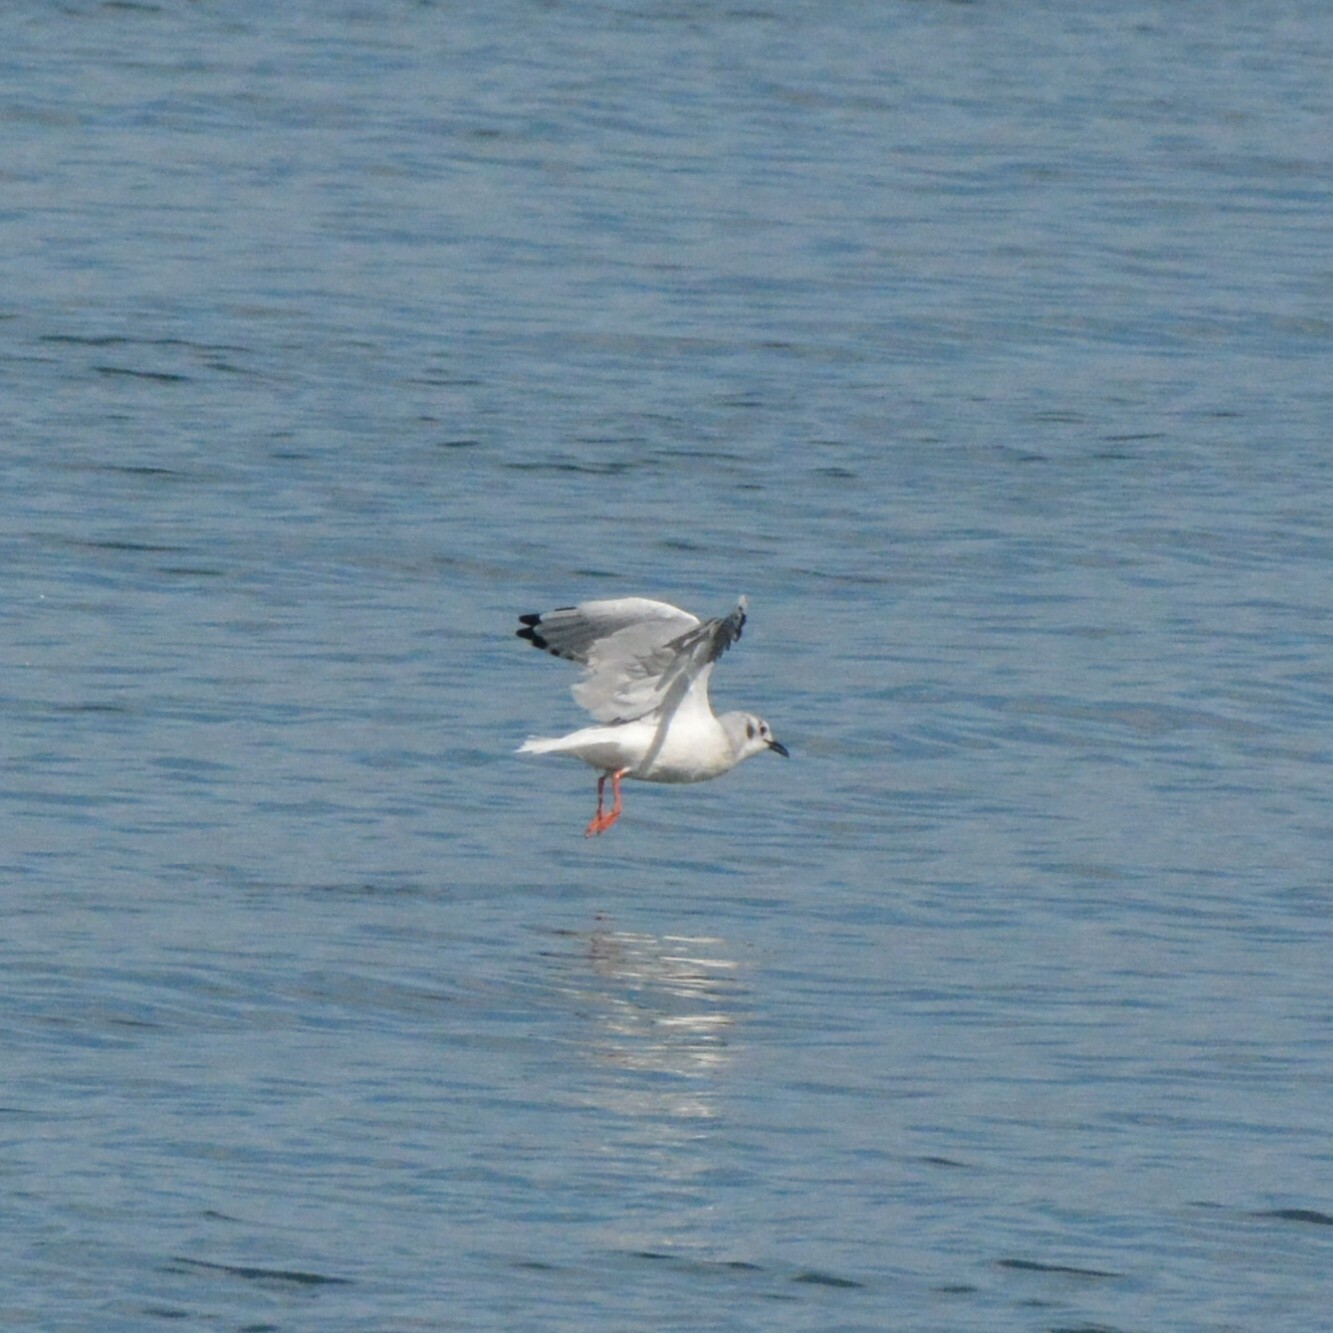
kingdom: Animalia
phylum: Chordata
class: Aves
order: Charadriiformes
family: Laridae
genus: Chroicocephalus
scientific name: Chroicocephalus philadelphia
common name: Bonaparte's gull
